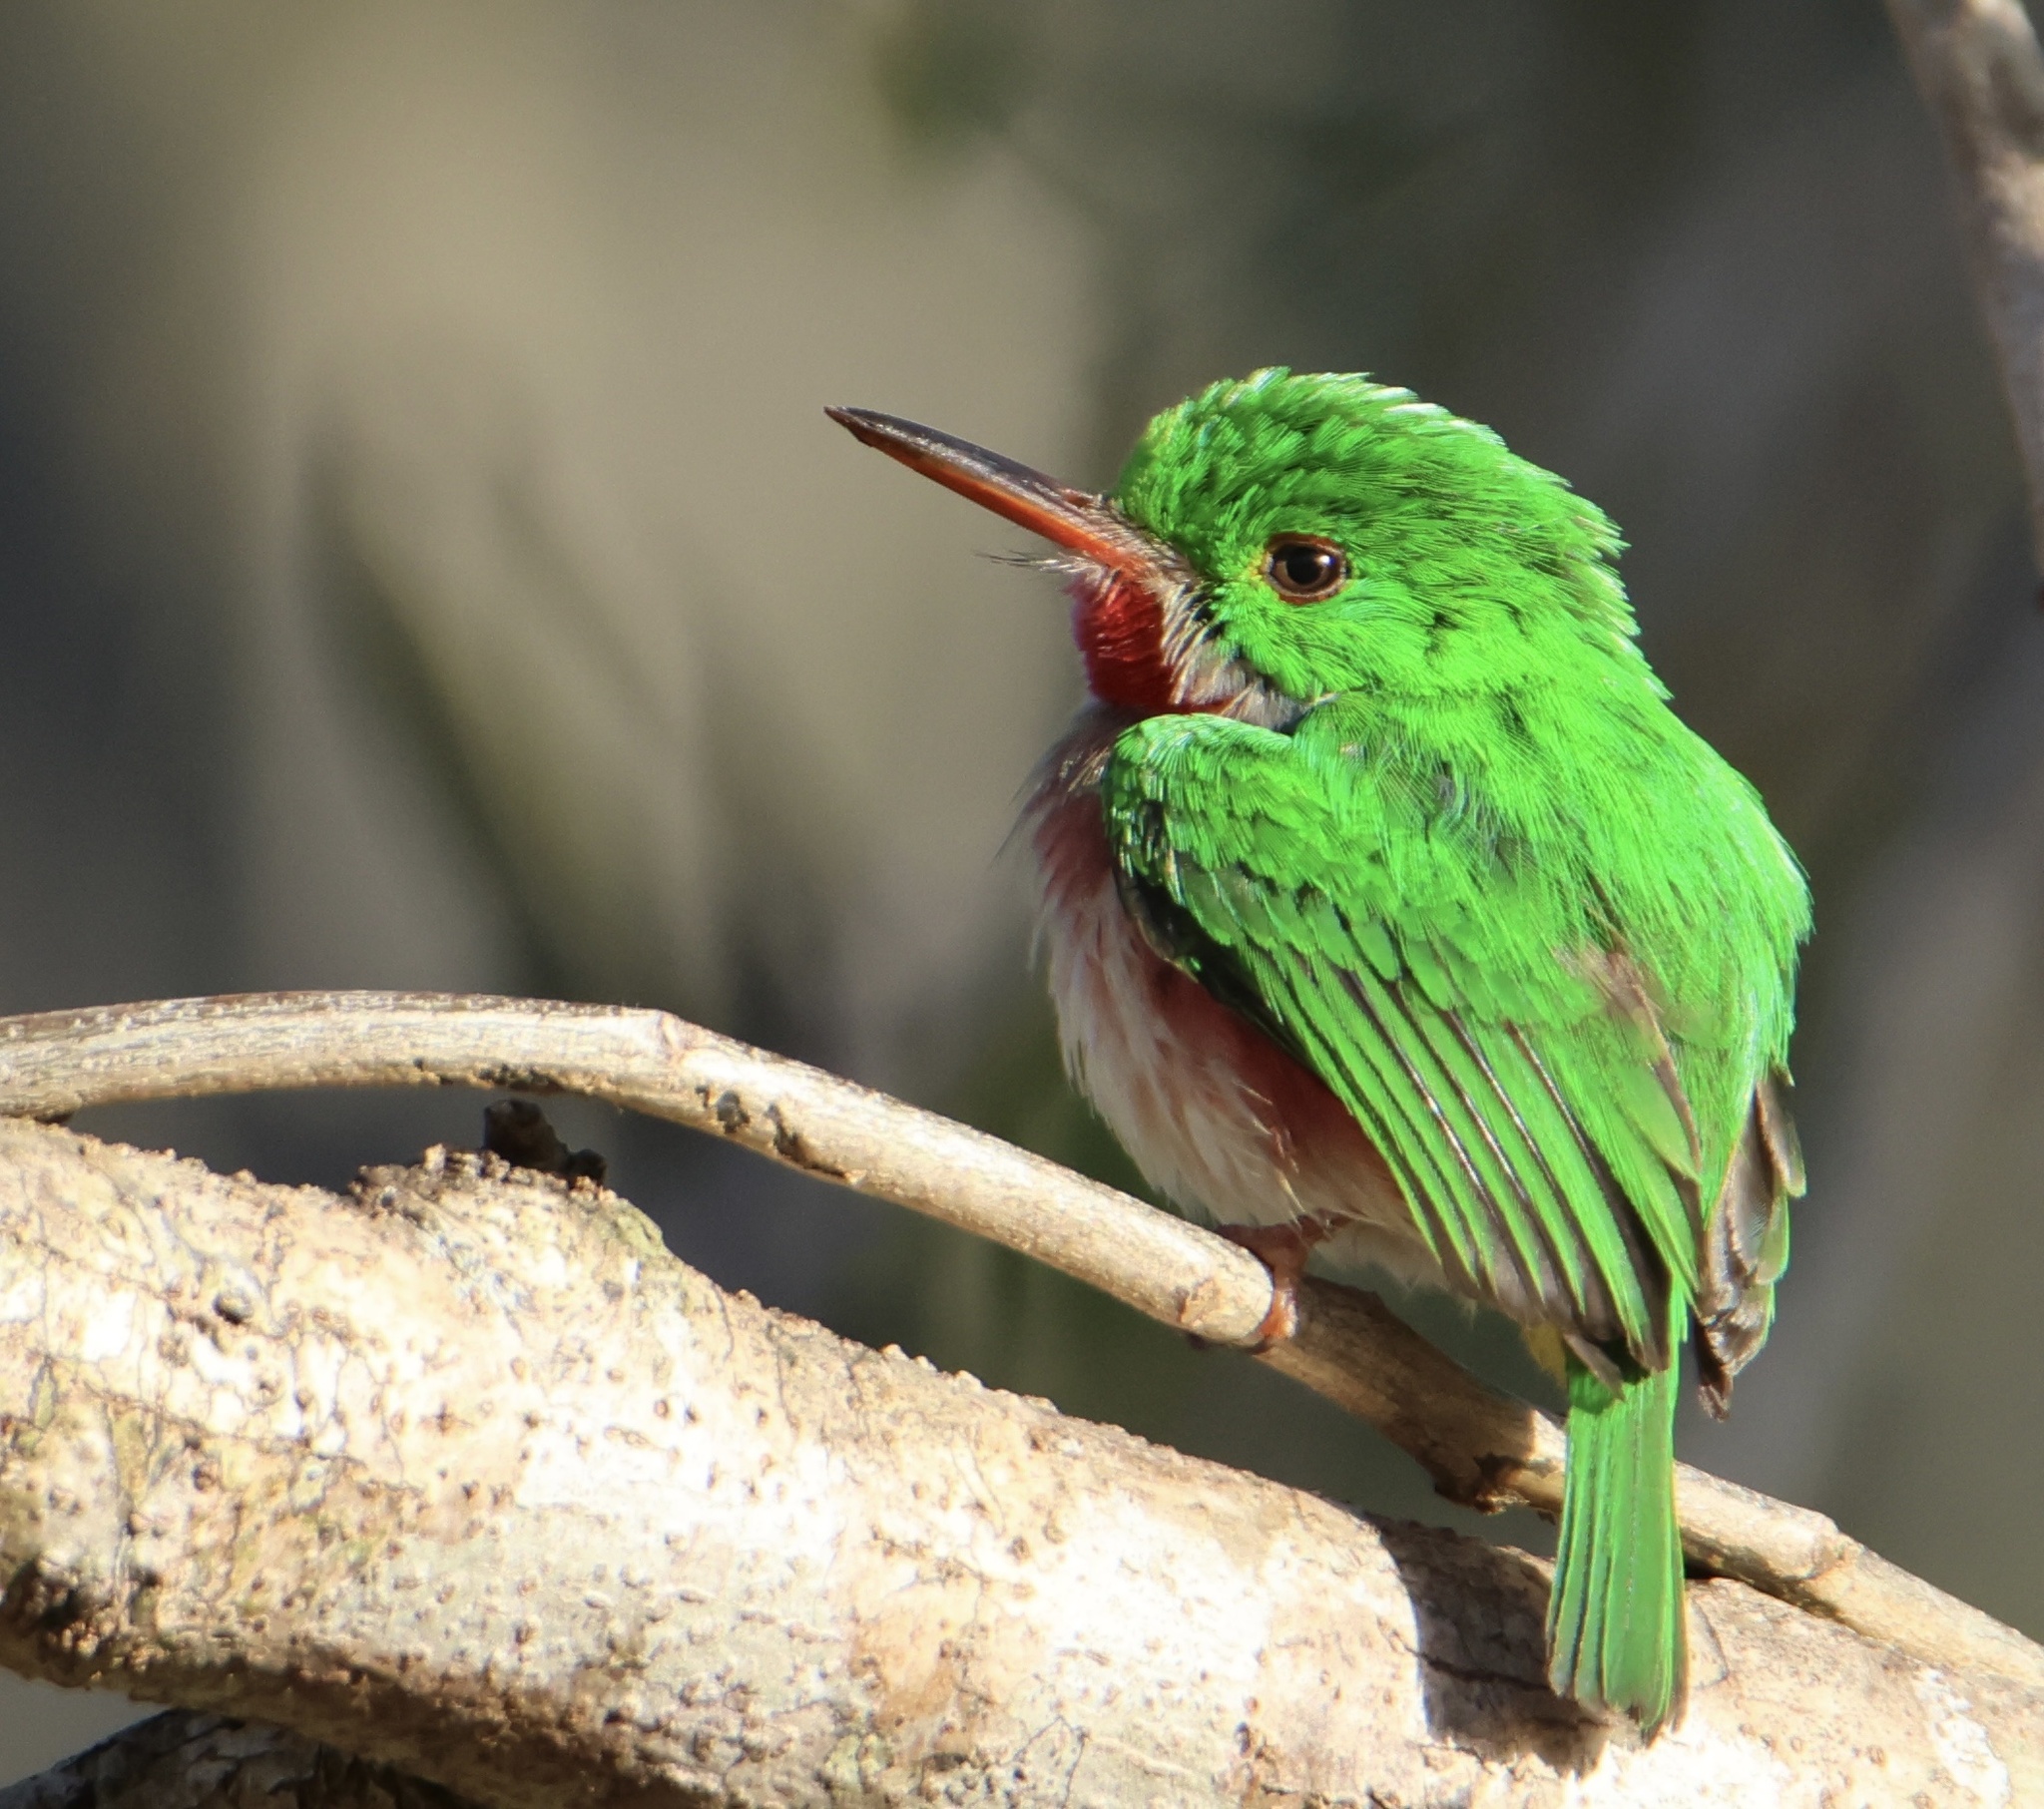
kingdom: Animalia
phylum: Chordata
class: Aves
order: Coraciiformes
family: Todidae
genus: Todus
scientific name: Todus subulatus
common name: Broad-billed tody
